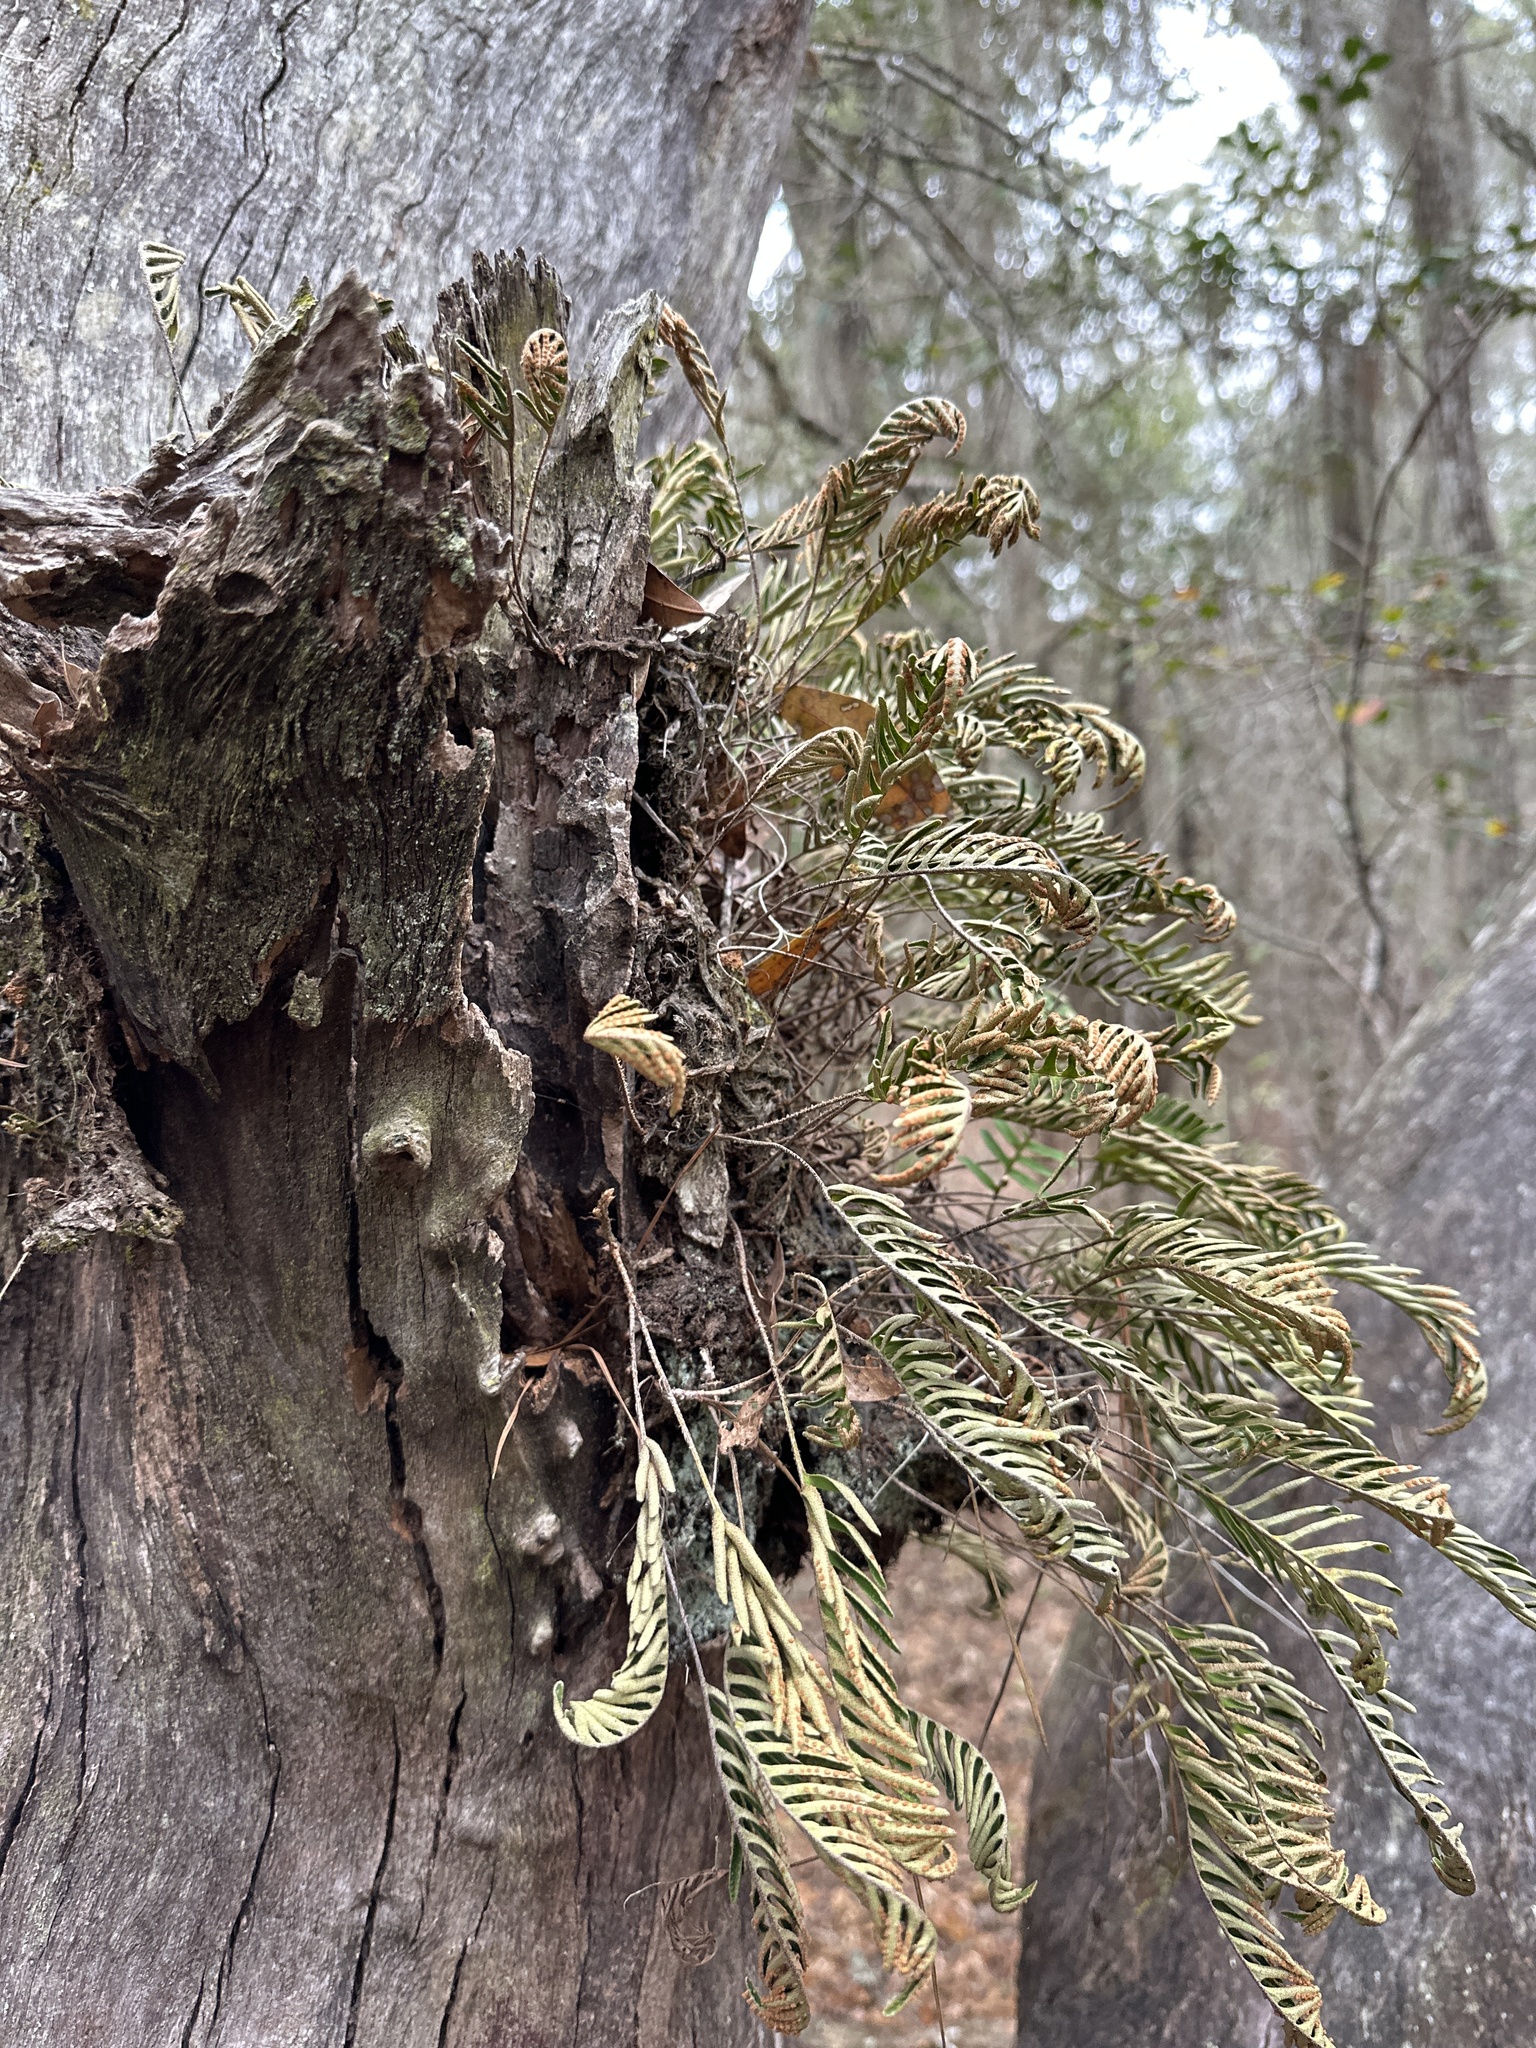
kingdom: Plantae
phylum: Tracheophyta
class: Polypodiopsida
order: Polypodiales
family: Polypodiaceae
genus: Pleopeltis
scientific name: Pleopeltis michauxiana
